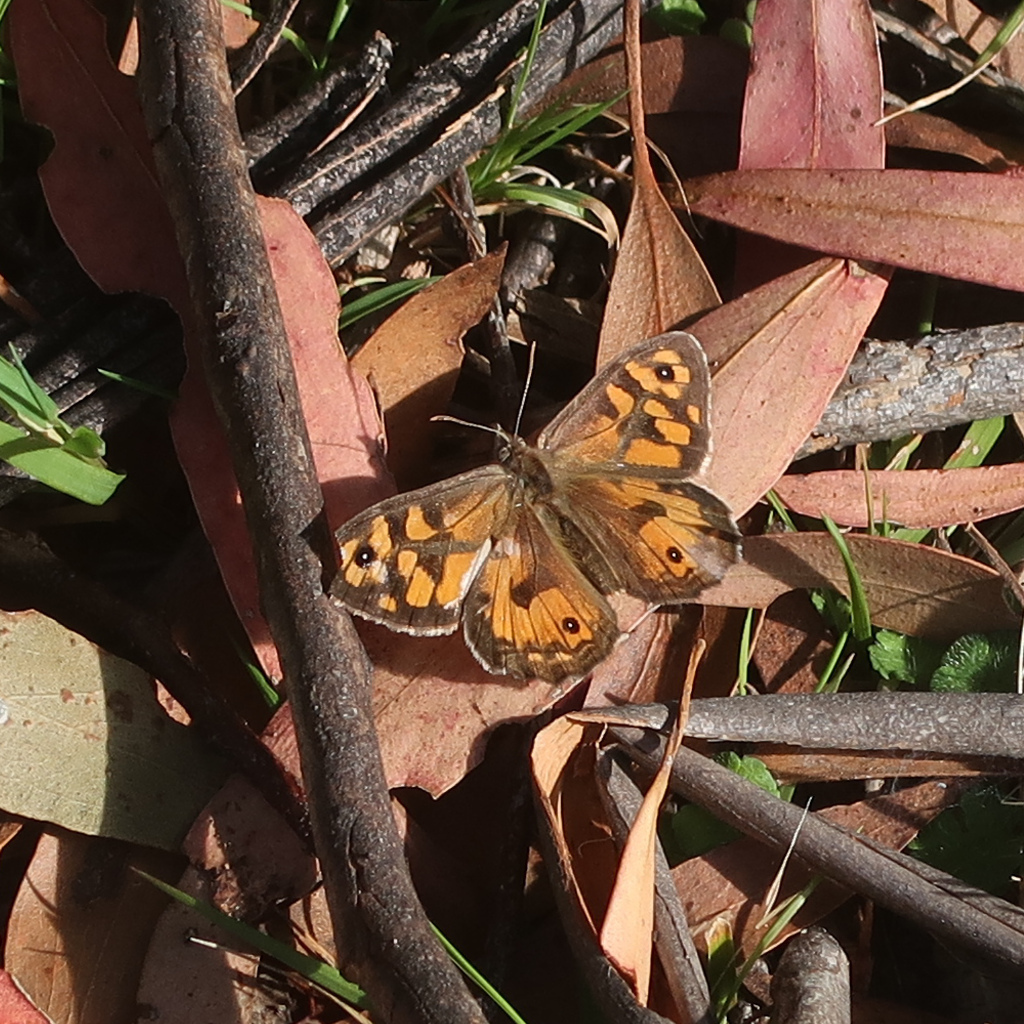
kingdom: Animalia
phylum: Arthropoda
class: Insecta
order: Lepidoptera
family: Nymphalidae
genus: Geitoneura
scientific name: Geitoneura klugii
